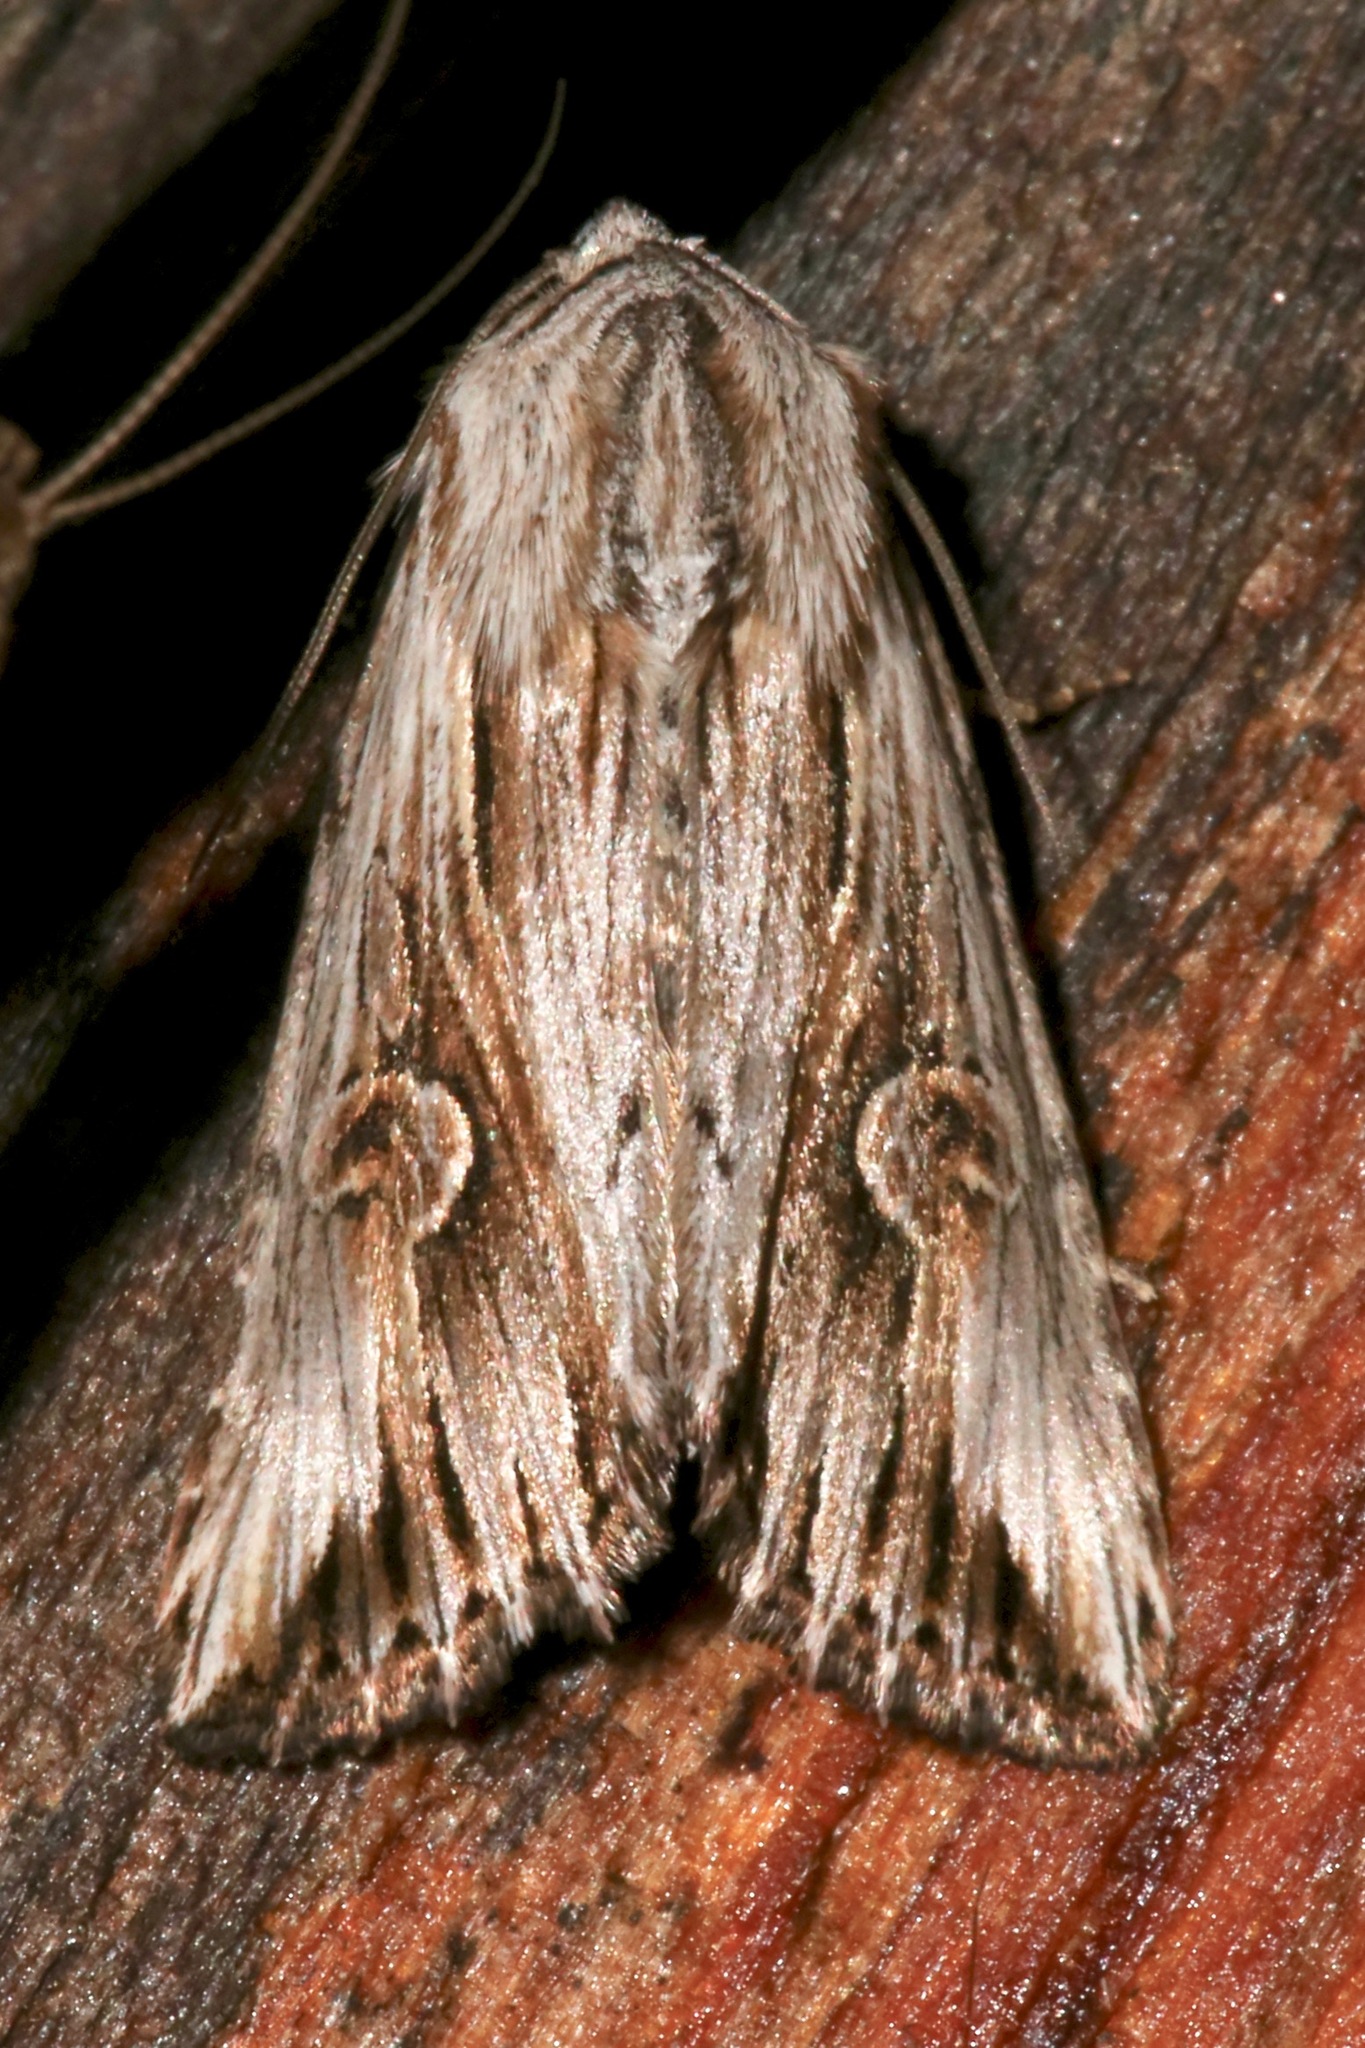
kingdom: Animalia
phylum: Arthropoda
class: Insecta
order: Lepidoptera
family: Noctuidae
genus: Nedra
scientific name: Nedra ramosula
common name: Gray half-spot
